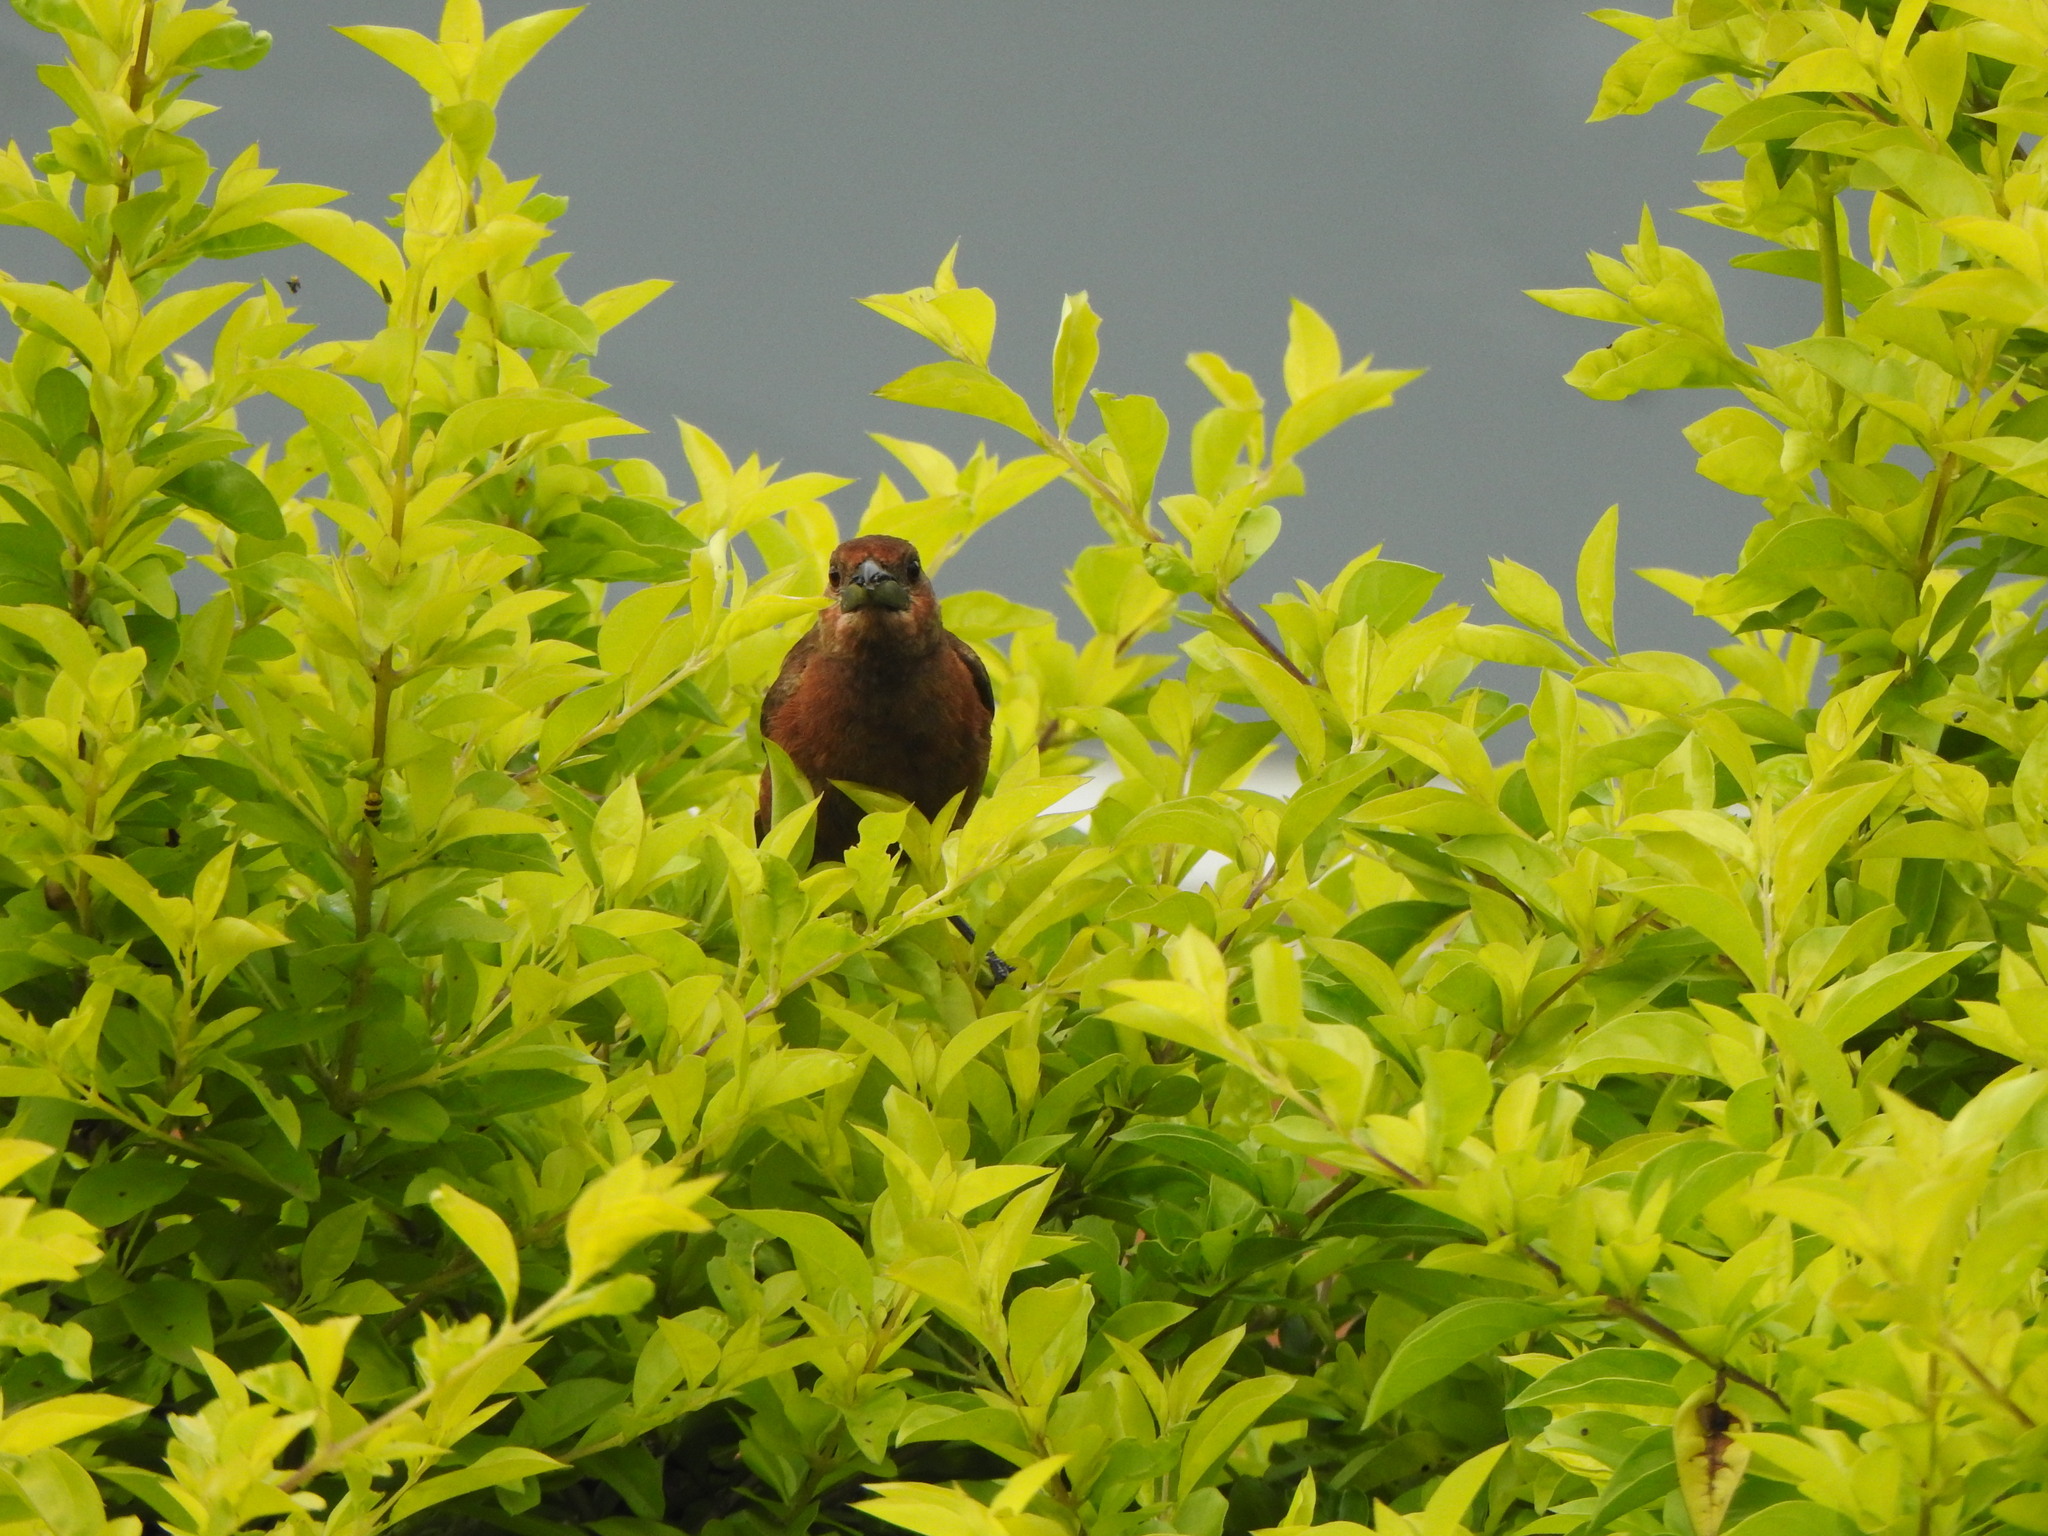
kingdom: Animalia
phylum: Chordata
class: Aves
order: Passeriformes
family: Thraupidae
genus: Ramphocelus
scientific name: Ramphocelus carbo
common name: Silver-beaked tanager
